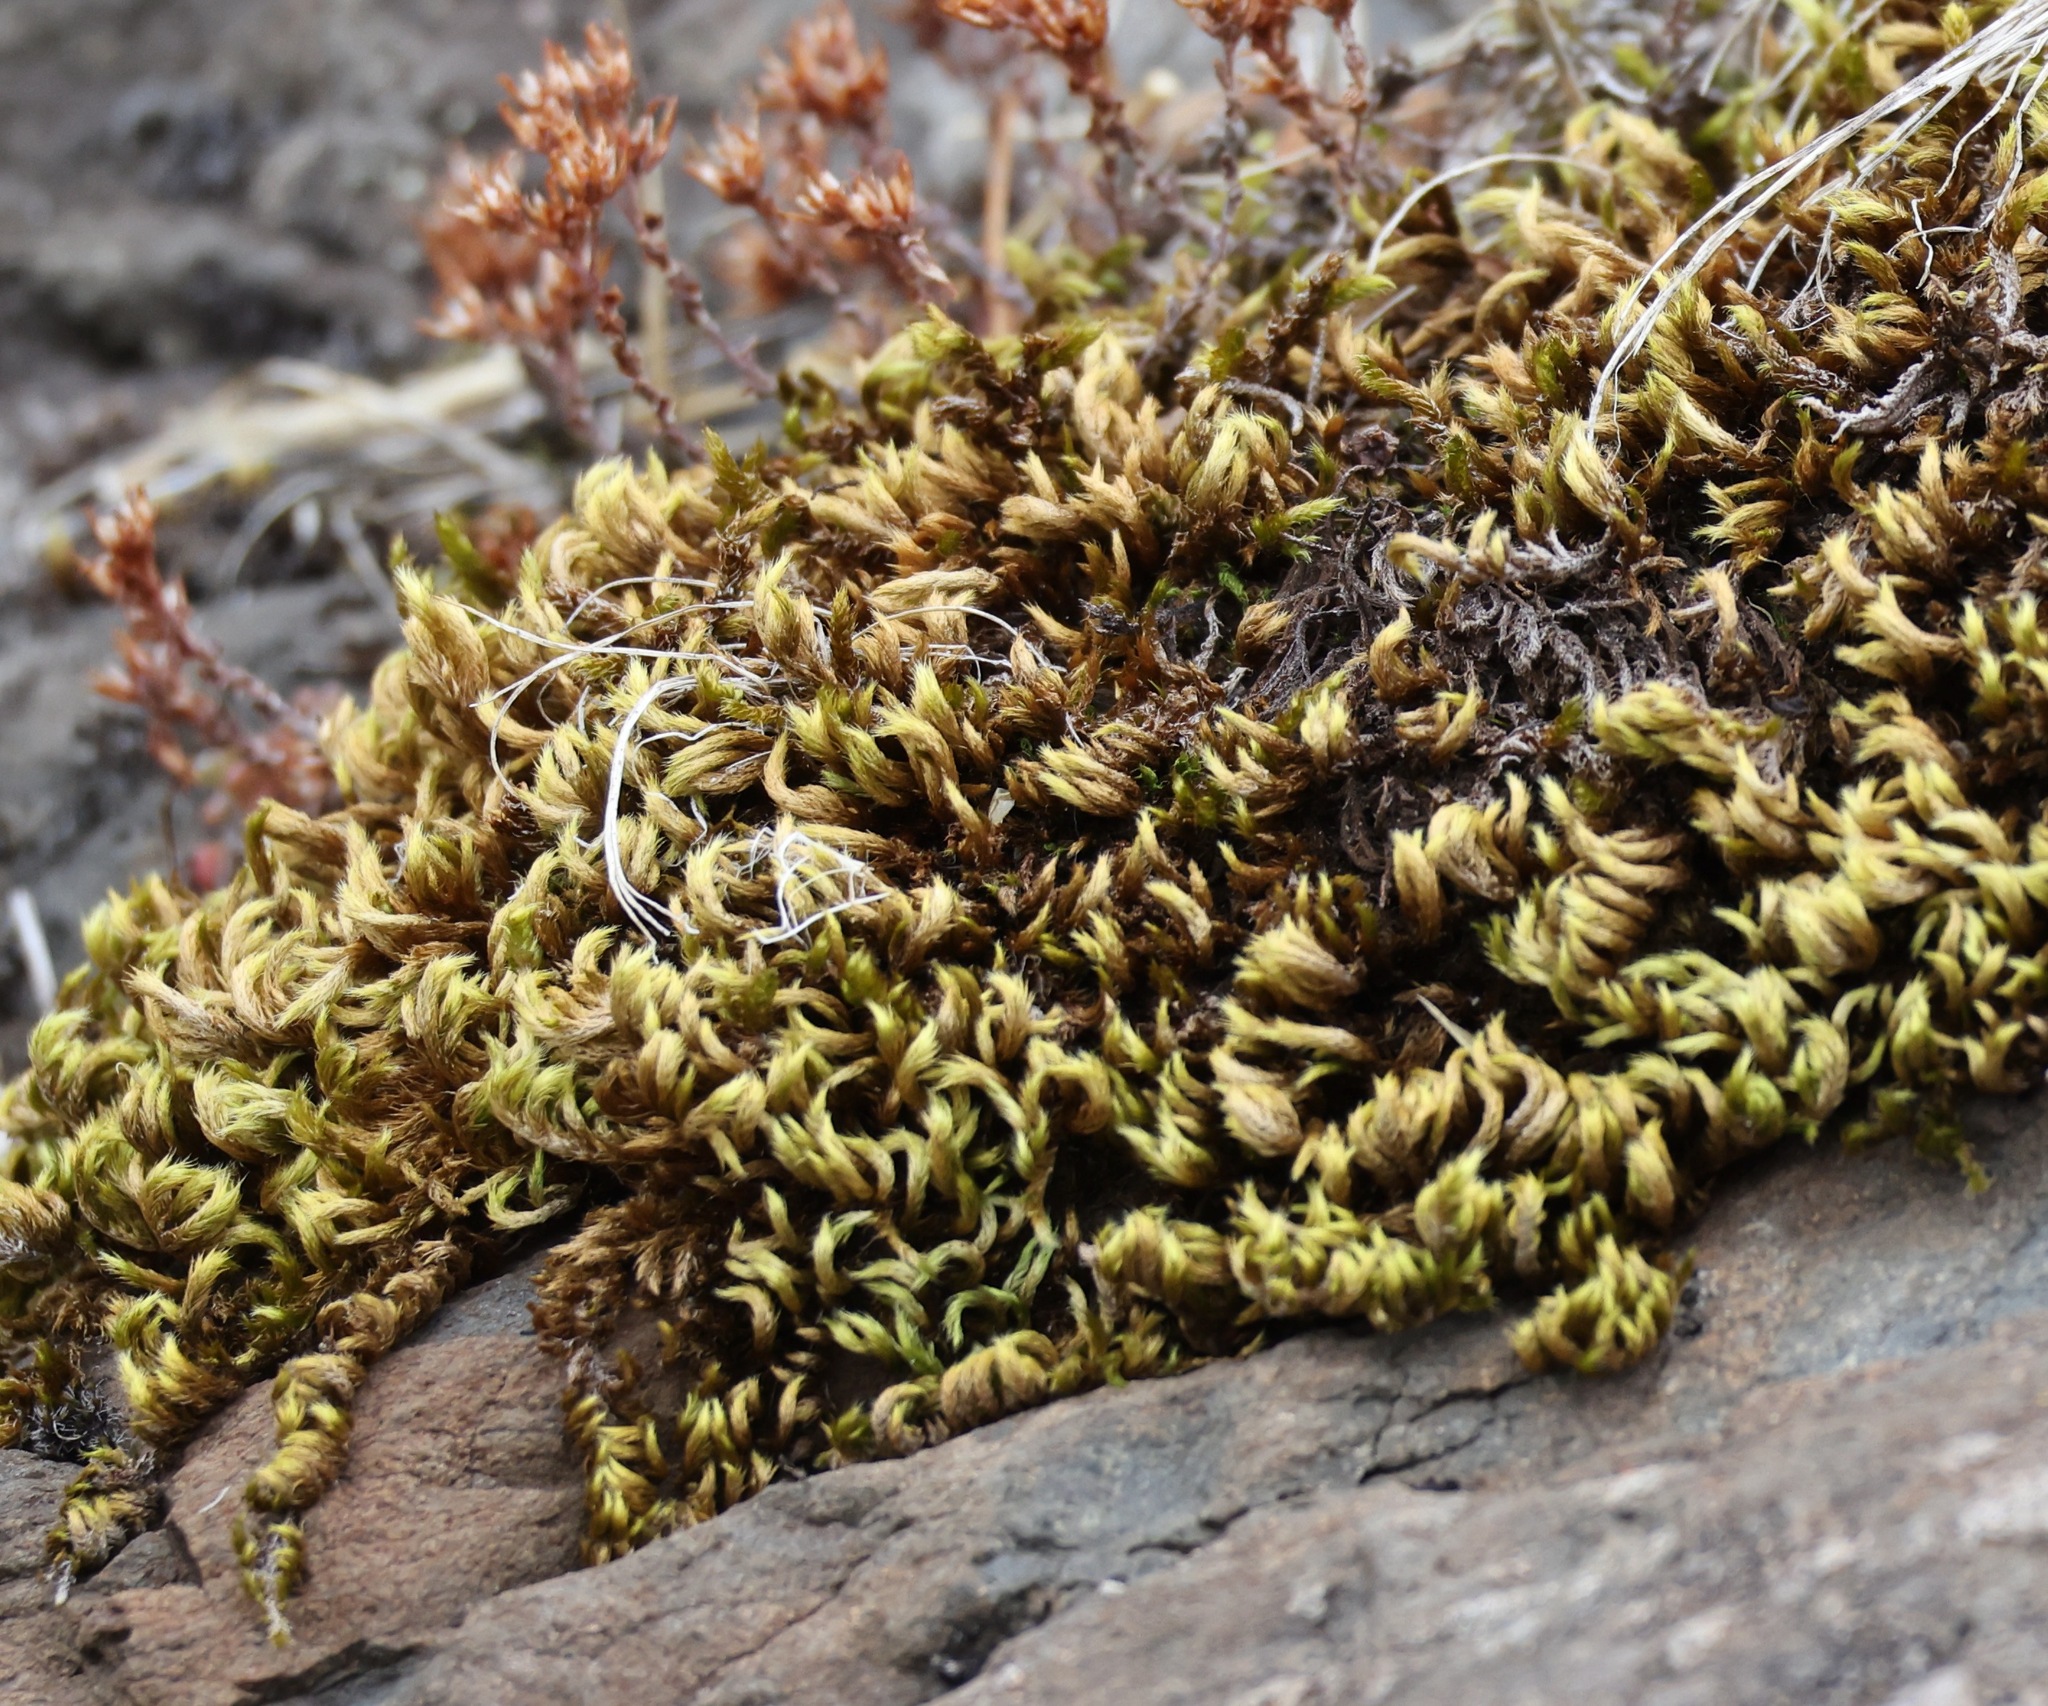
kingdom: Plantae
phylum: Bryophyta
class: Bryopsida
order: Hypnales
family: Brachytheciaceae
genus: Homalothecium
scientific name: Homalothecium sericeum
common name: Silky wall feather-moss
